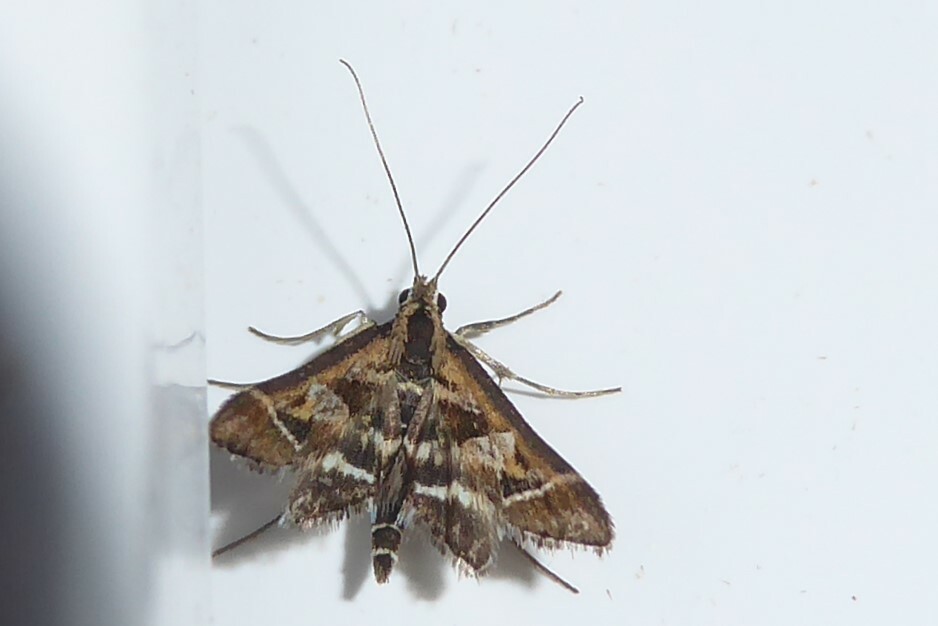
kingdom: Animalia
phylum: Arthropoda
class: Insecta
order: Lepidoptera
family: Crambidae
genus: Diasemia
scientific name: Diasemia grammalis
